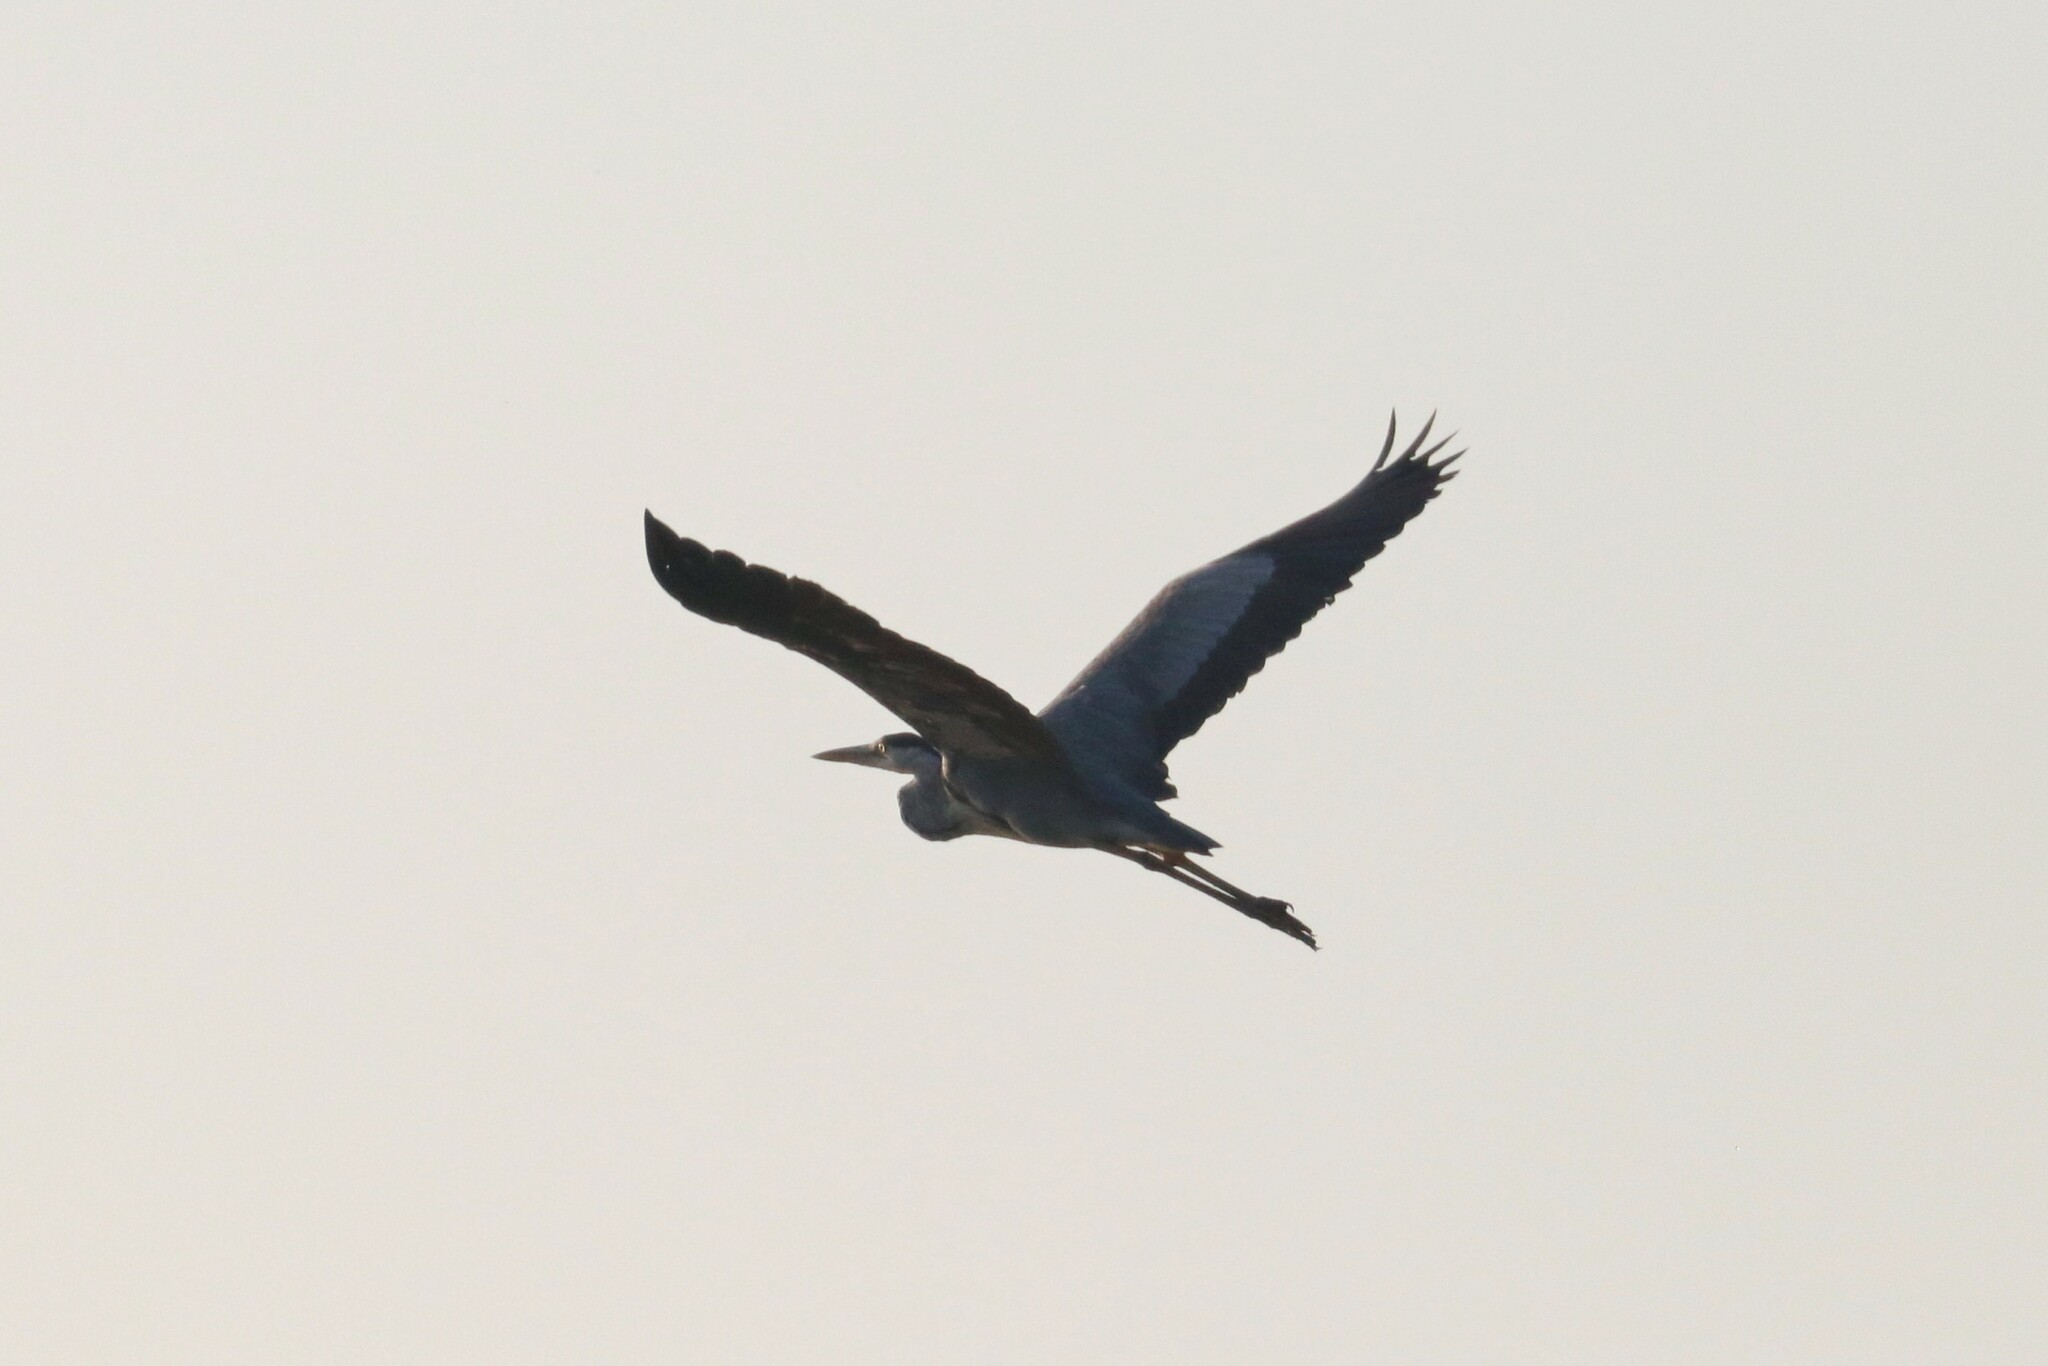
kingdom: Animalia
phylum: Chordata
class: Aves
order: Pelecaniformes
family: Ardeidae
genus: Ardea
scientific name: Ardea cinerea
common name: Grey heron
